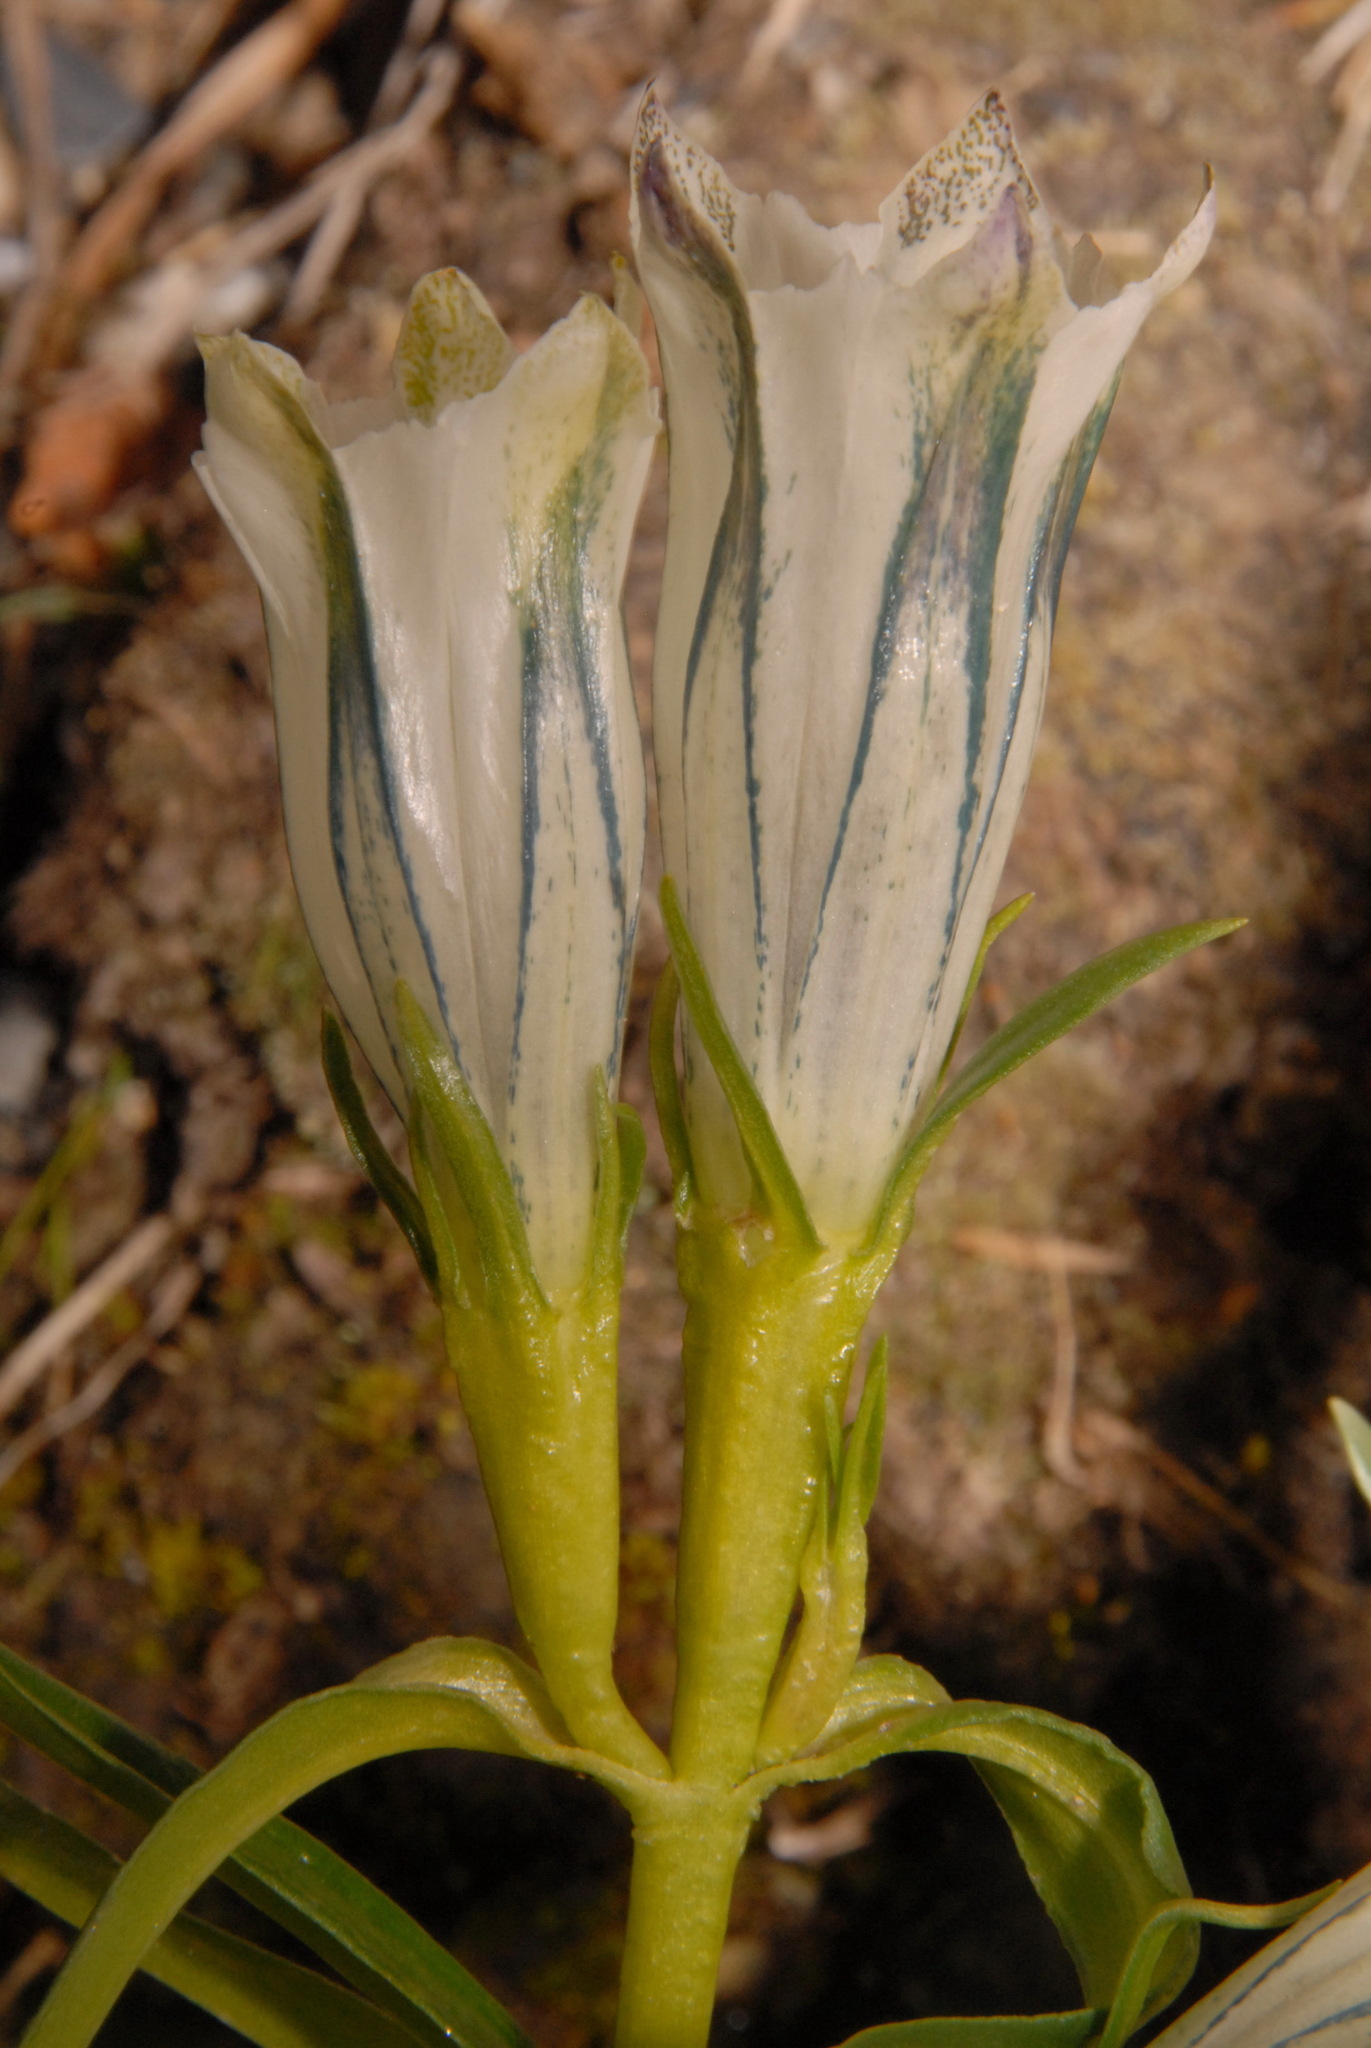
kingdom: Plantae
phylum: Tracheophyta
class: Magnoliopsida
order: Gentianales
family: Gentianaceae
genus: Gentiana
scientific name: Gentiana algida
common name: Arctic gentian
